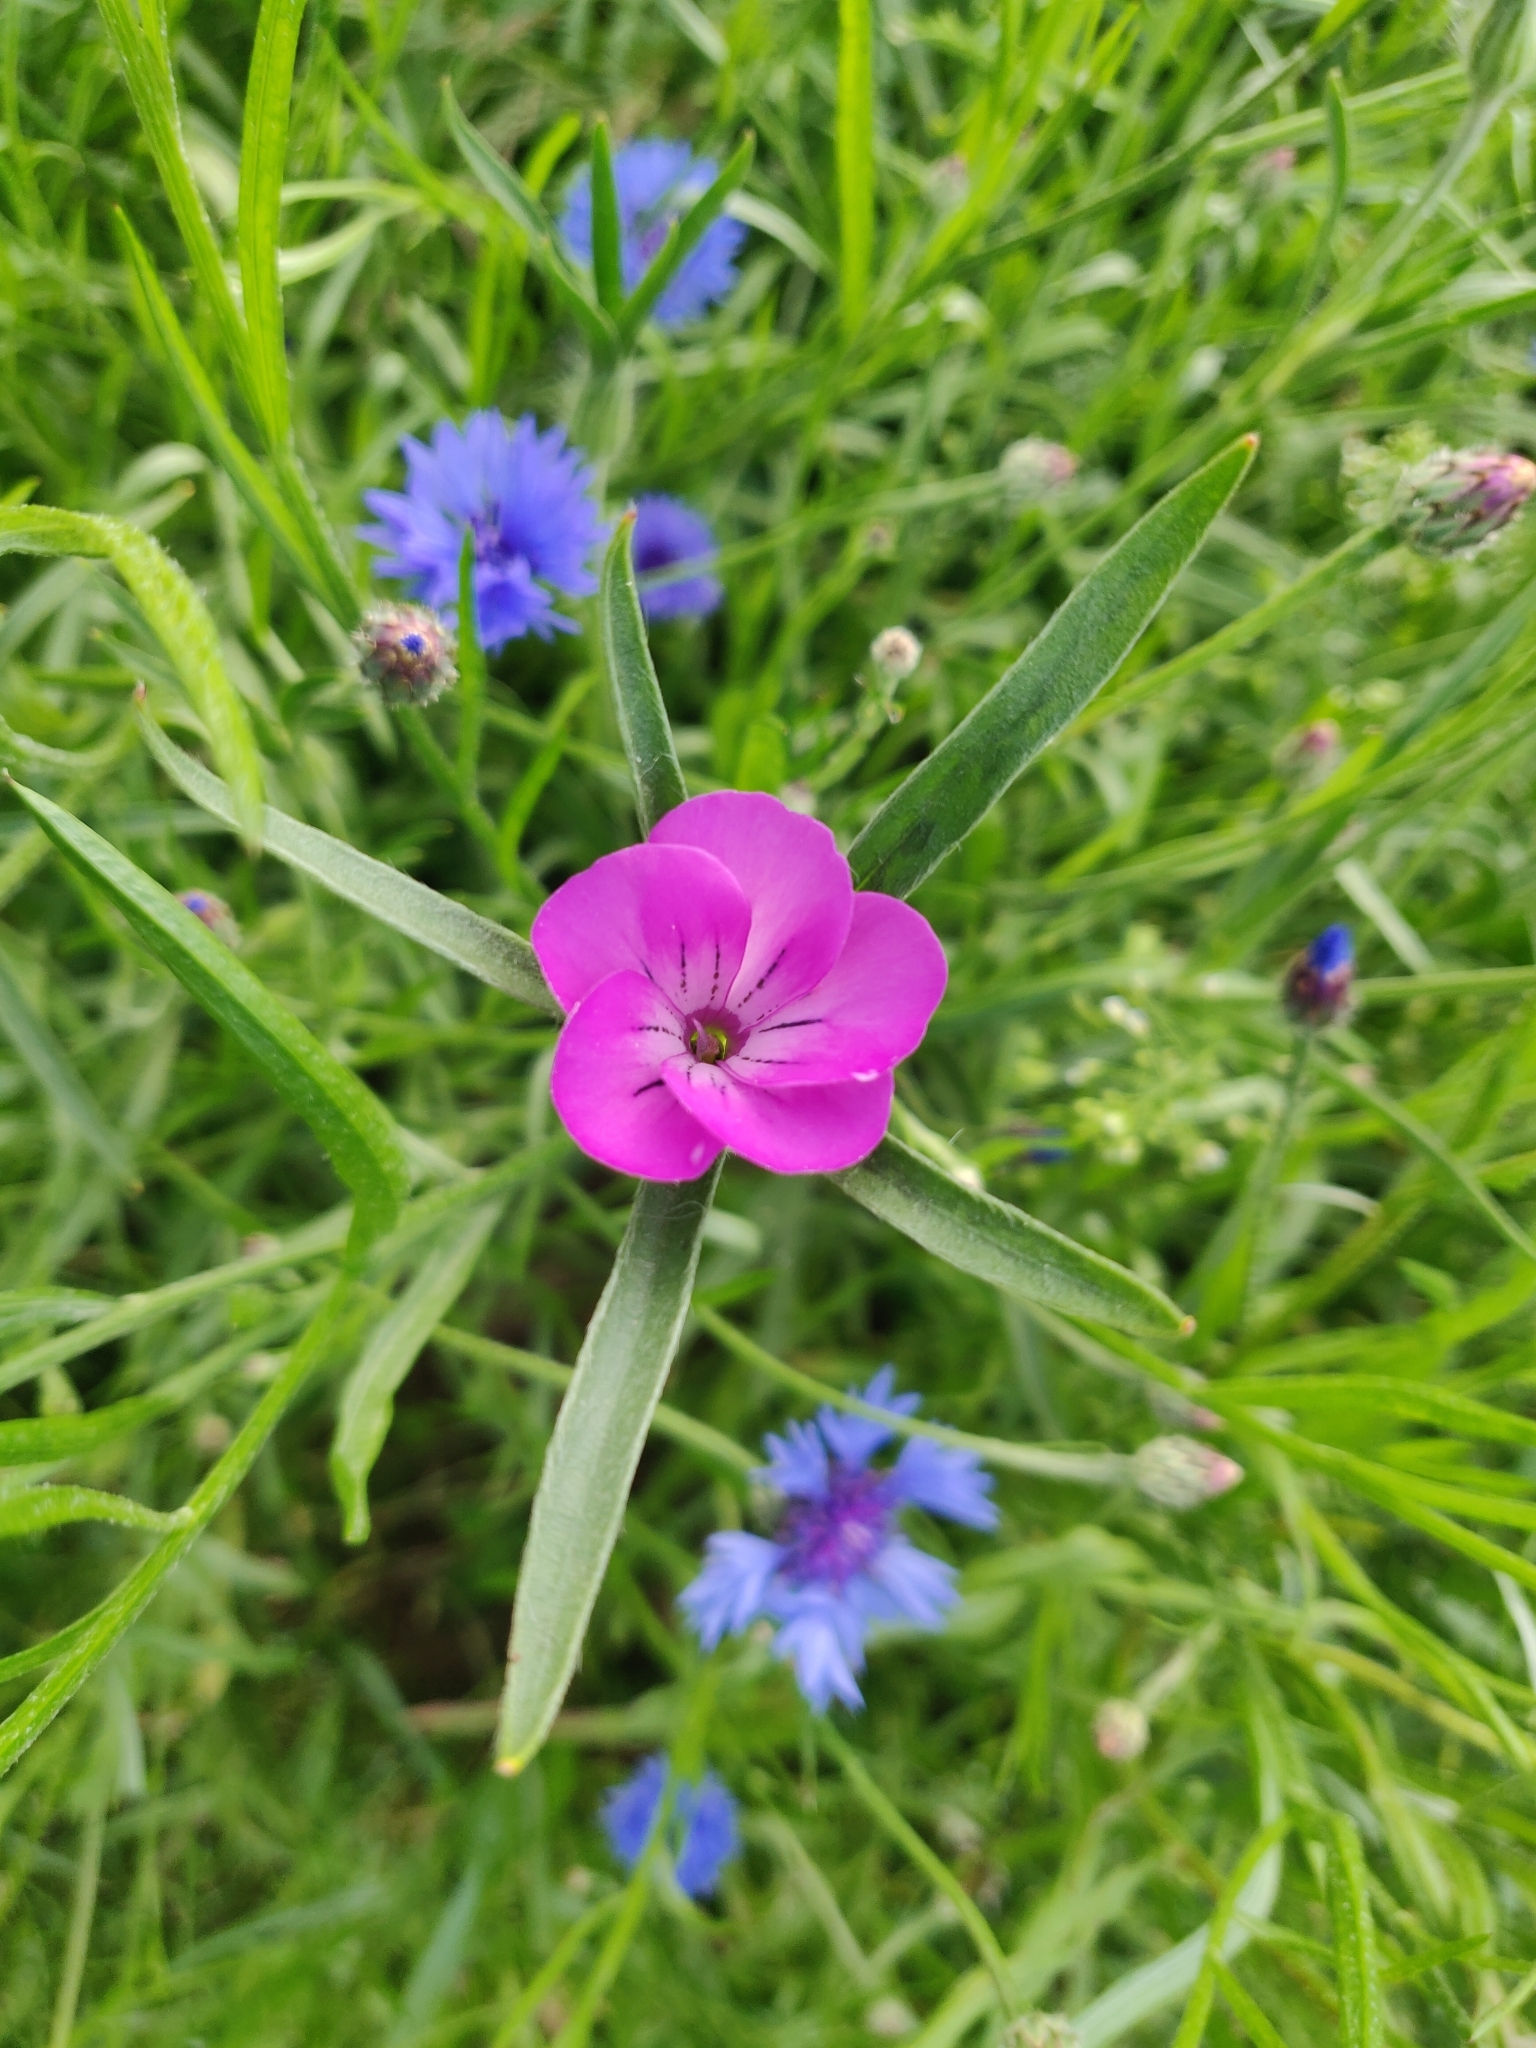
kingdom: Plantae
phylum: Tracheophyta
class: Magnoliopsida
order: Caryophyllales
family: Caryophyllaceae
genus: Agrostemma
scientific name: Agrostemma githago
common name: Common corncockle
